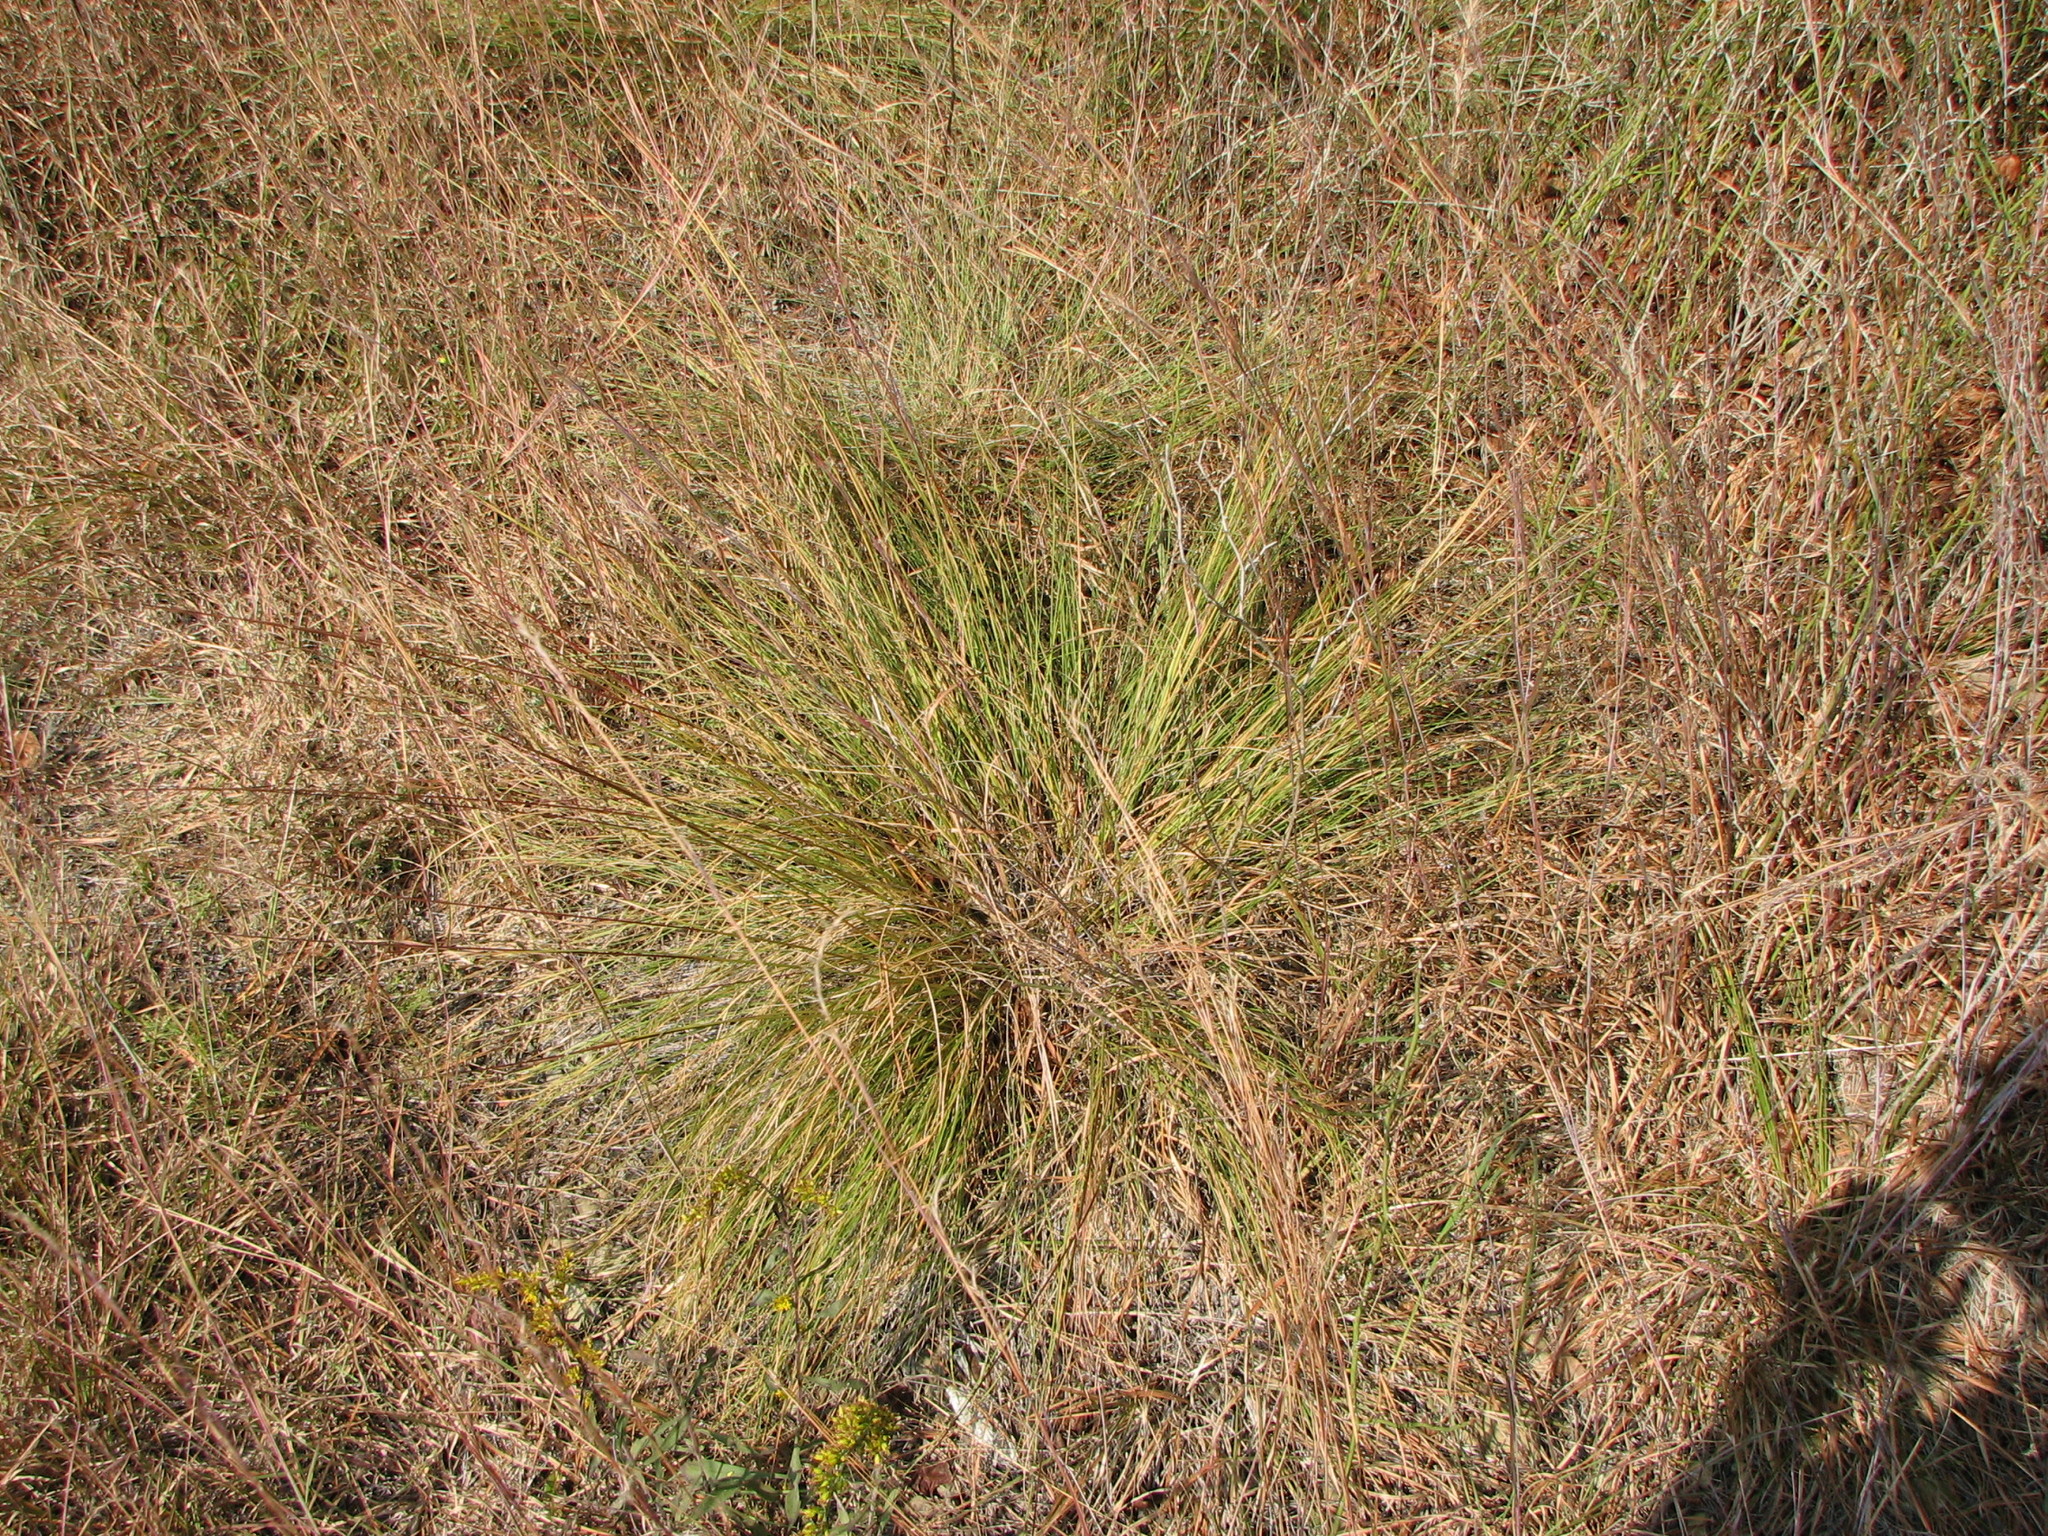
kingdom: Plantae
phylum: Tracheophyta
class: Liliopsida
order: Poales
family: Poaceae
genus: Sporobolus
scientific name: Sporobolus heterolepis
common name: Prairie dropseed
